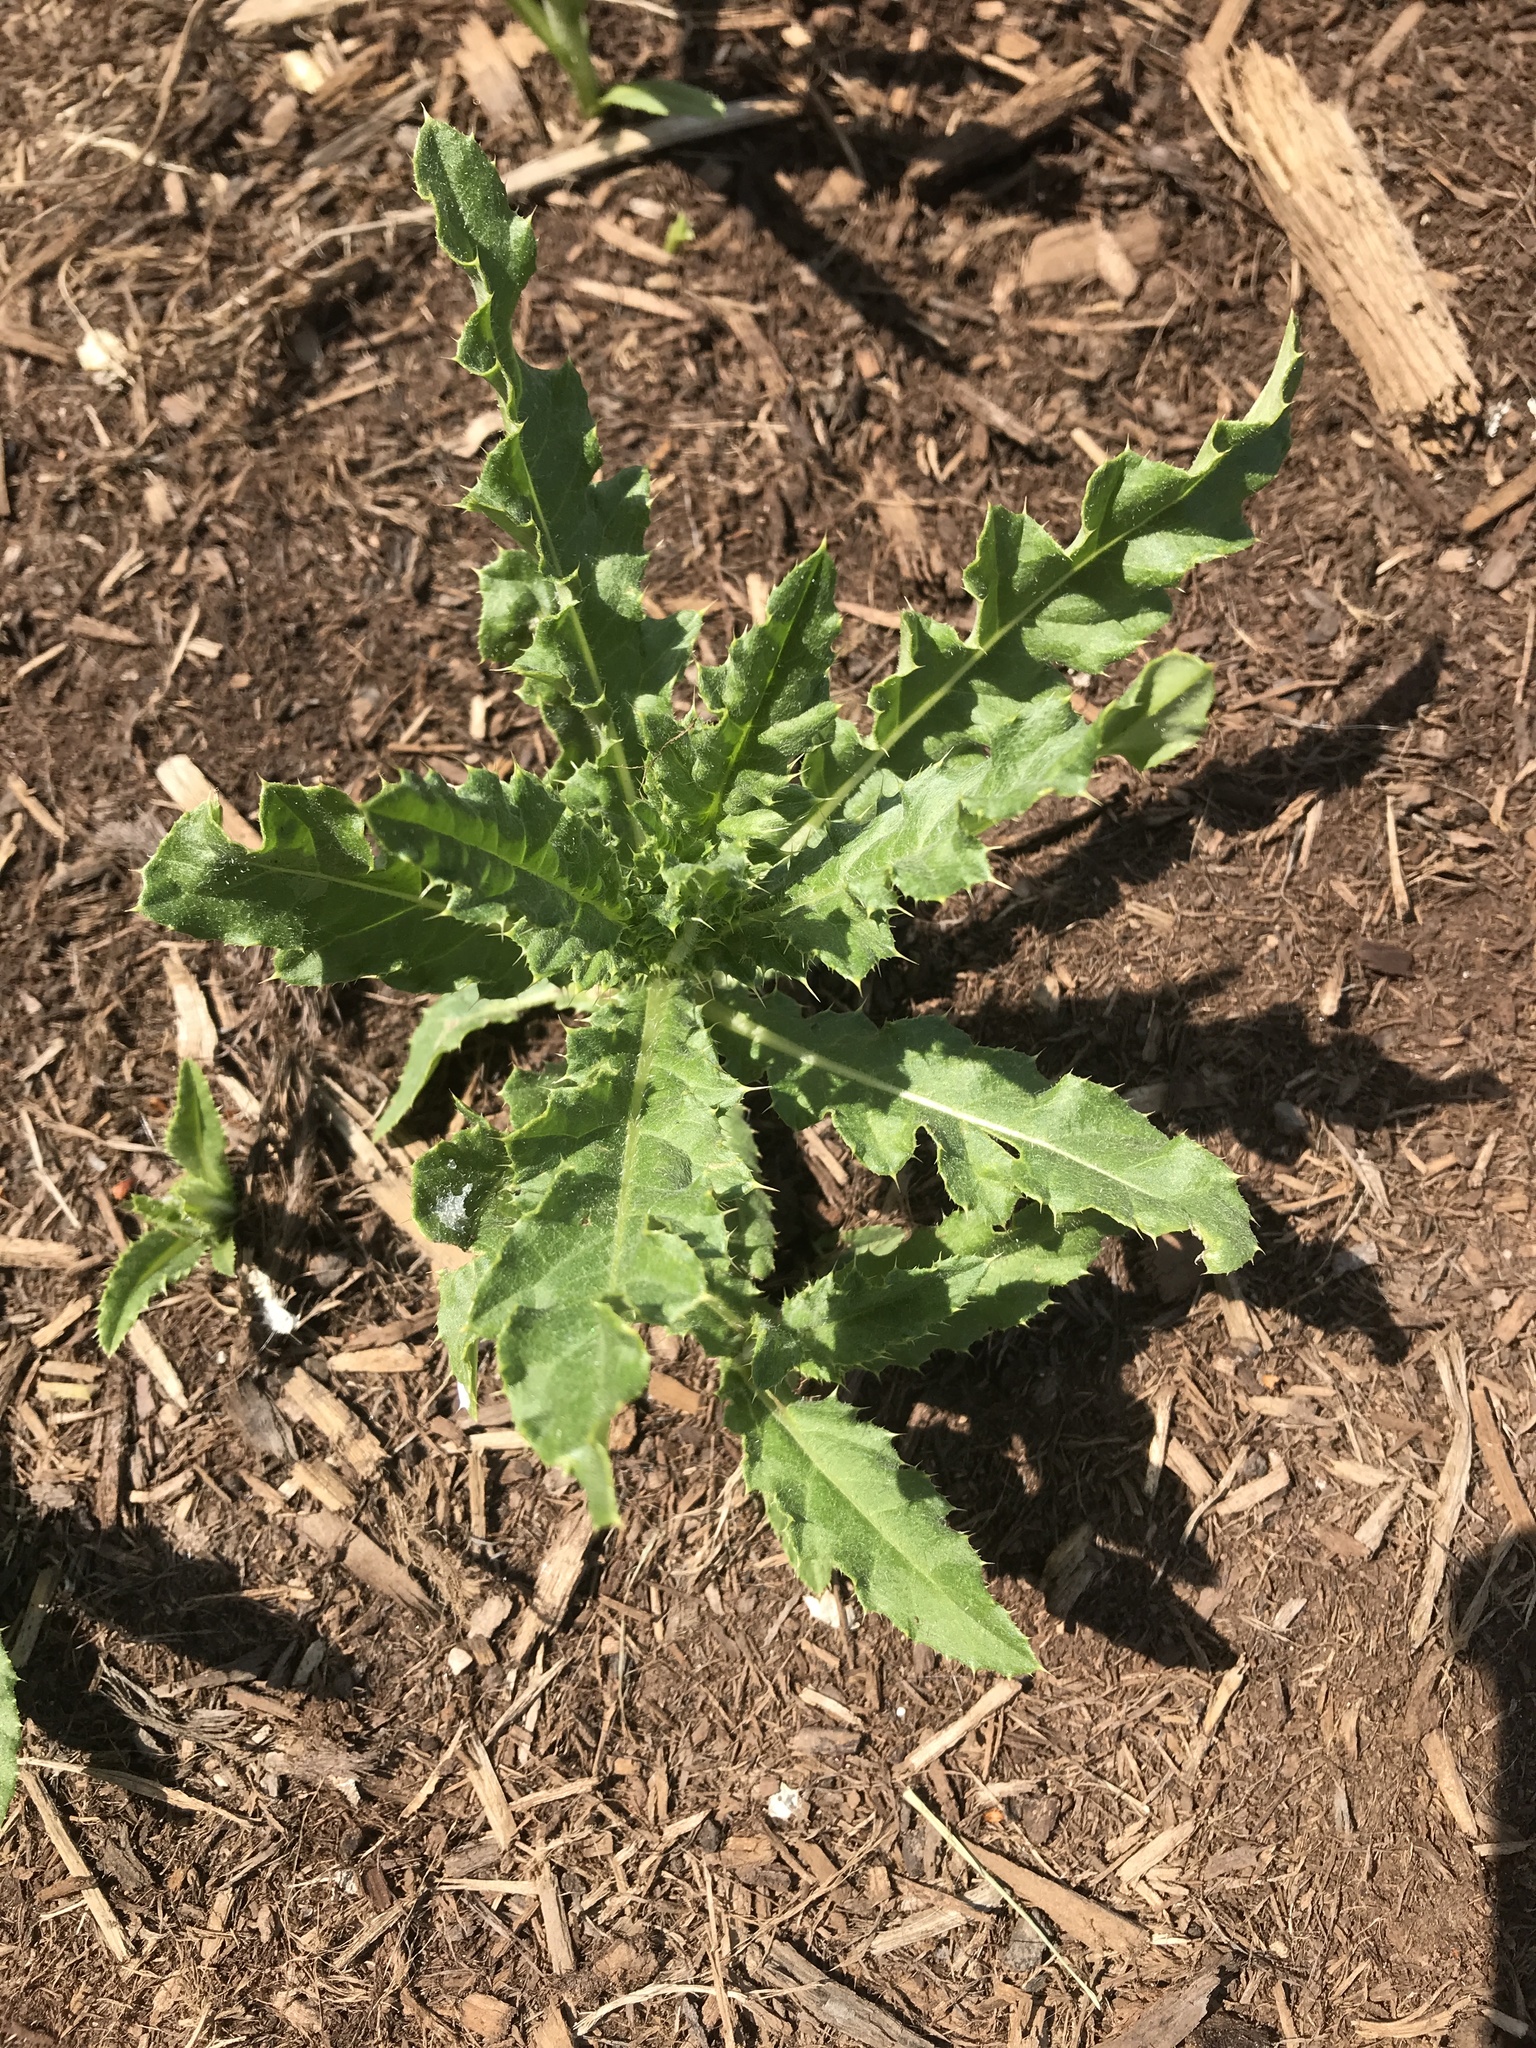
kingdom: Plantae
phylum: Tracheophyta
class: Magnoliopsida
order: Asterales
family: Asteraceae
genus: Cirsium
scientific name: Cirsium arvense
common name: Creeping thistle
